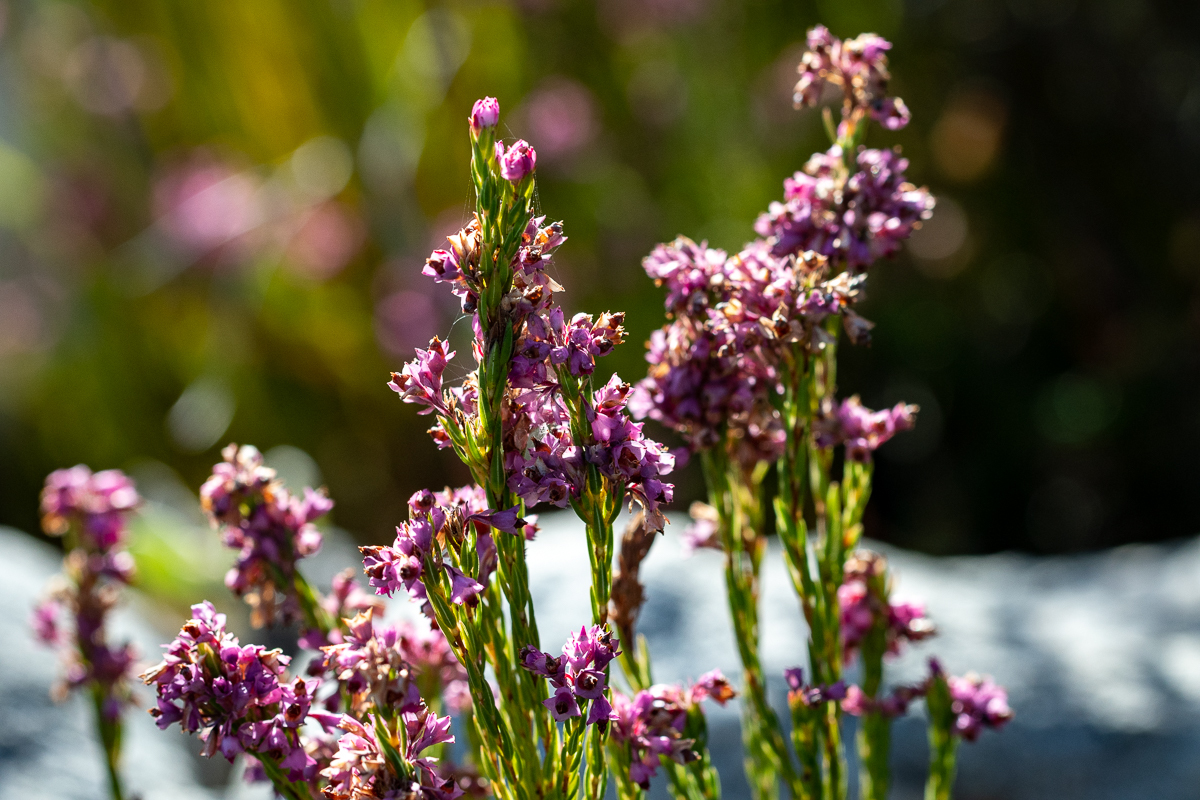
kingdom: Plantae
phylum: Tracheophyta
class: Magnoliopsida
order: Ericales
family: Ericaceae
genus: Erica
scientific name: Erica corifolia
